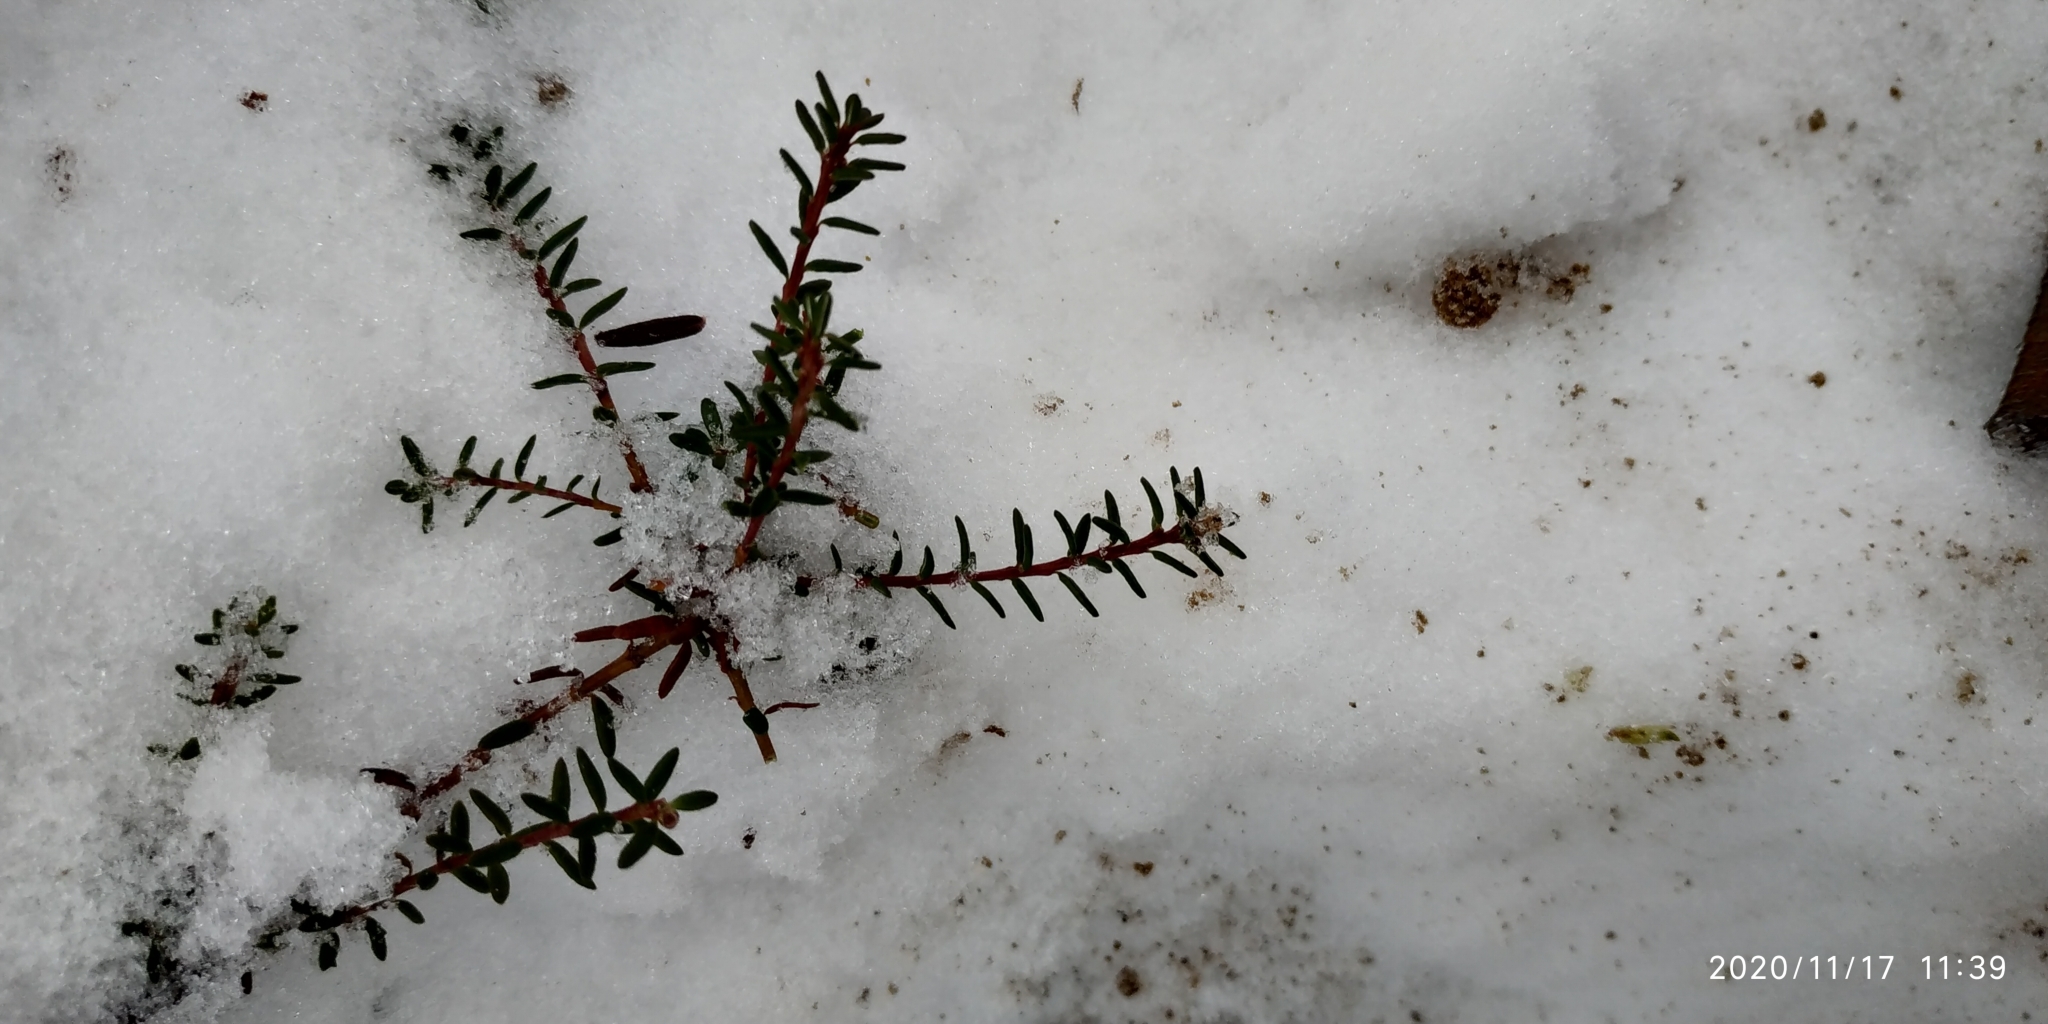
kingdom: Plantae
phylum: Tracheophyta
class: Magnoliopsida
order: Ericales
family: Ericaceae
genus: Empetrum
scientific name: Empetrum nigrum
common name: Black crowberry
